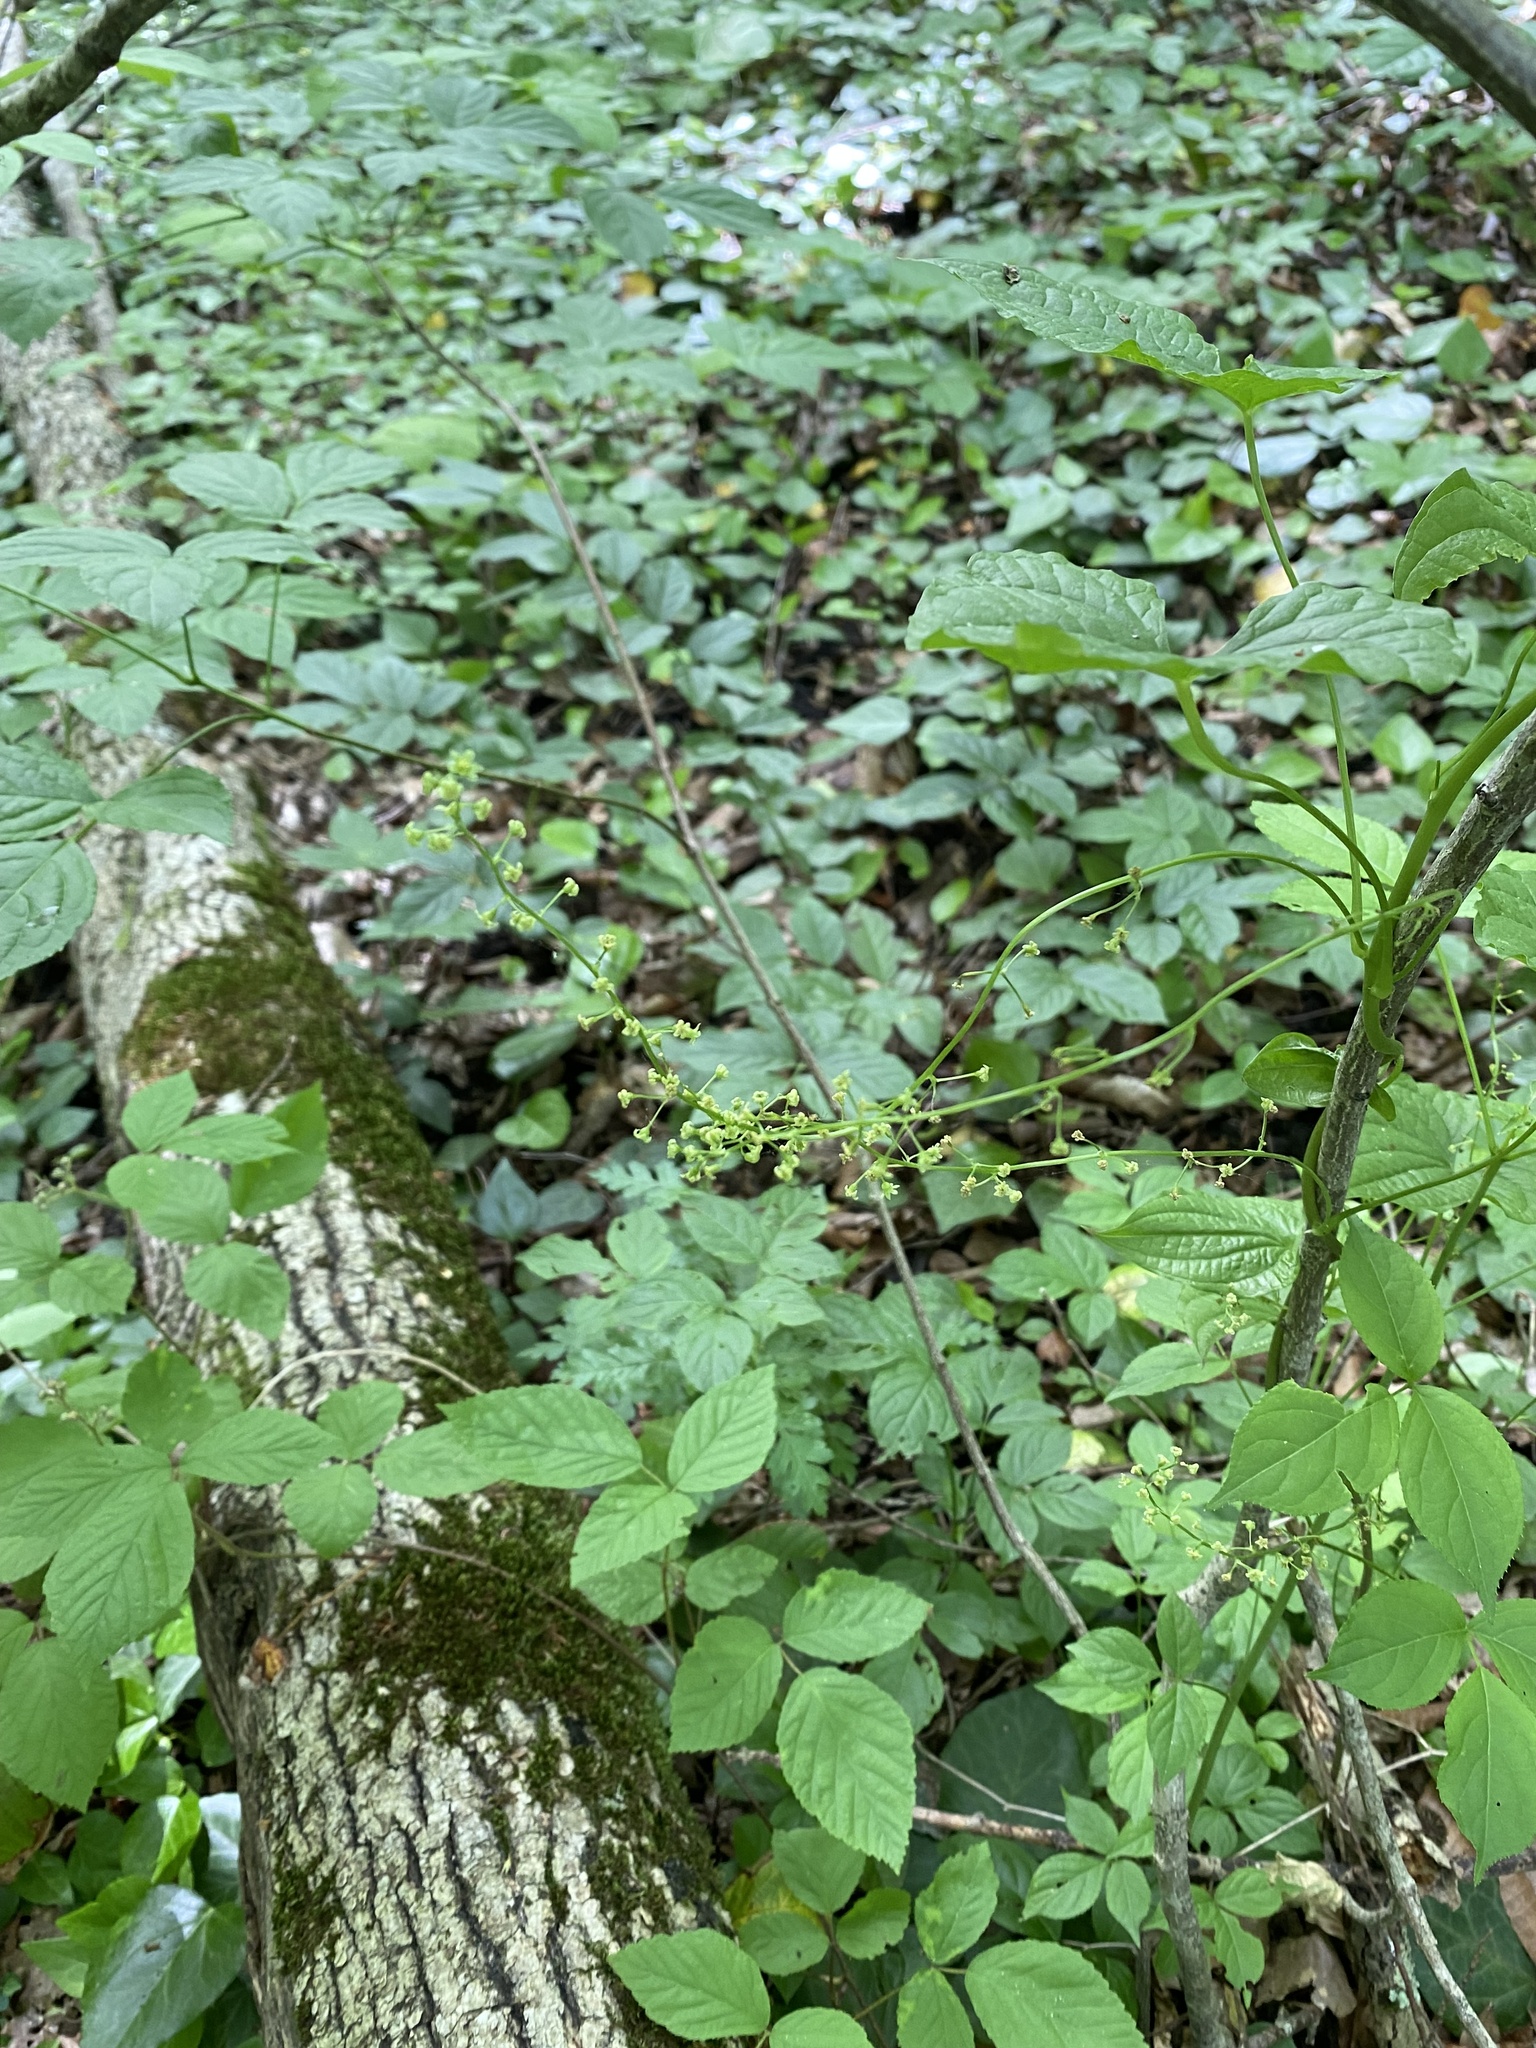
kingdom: Plantae
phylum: Tracheophyta
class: Liliopsida
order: Dioscoreales
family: Dioscoreaceae
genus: Dioscorea
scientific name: Dioscorea communis
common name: Black-bindweed
